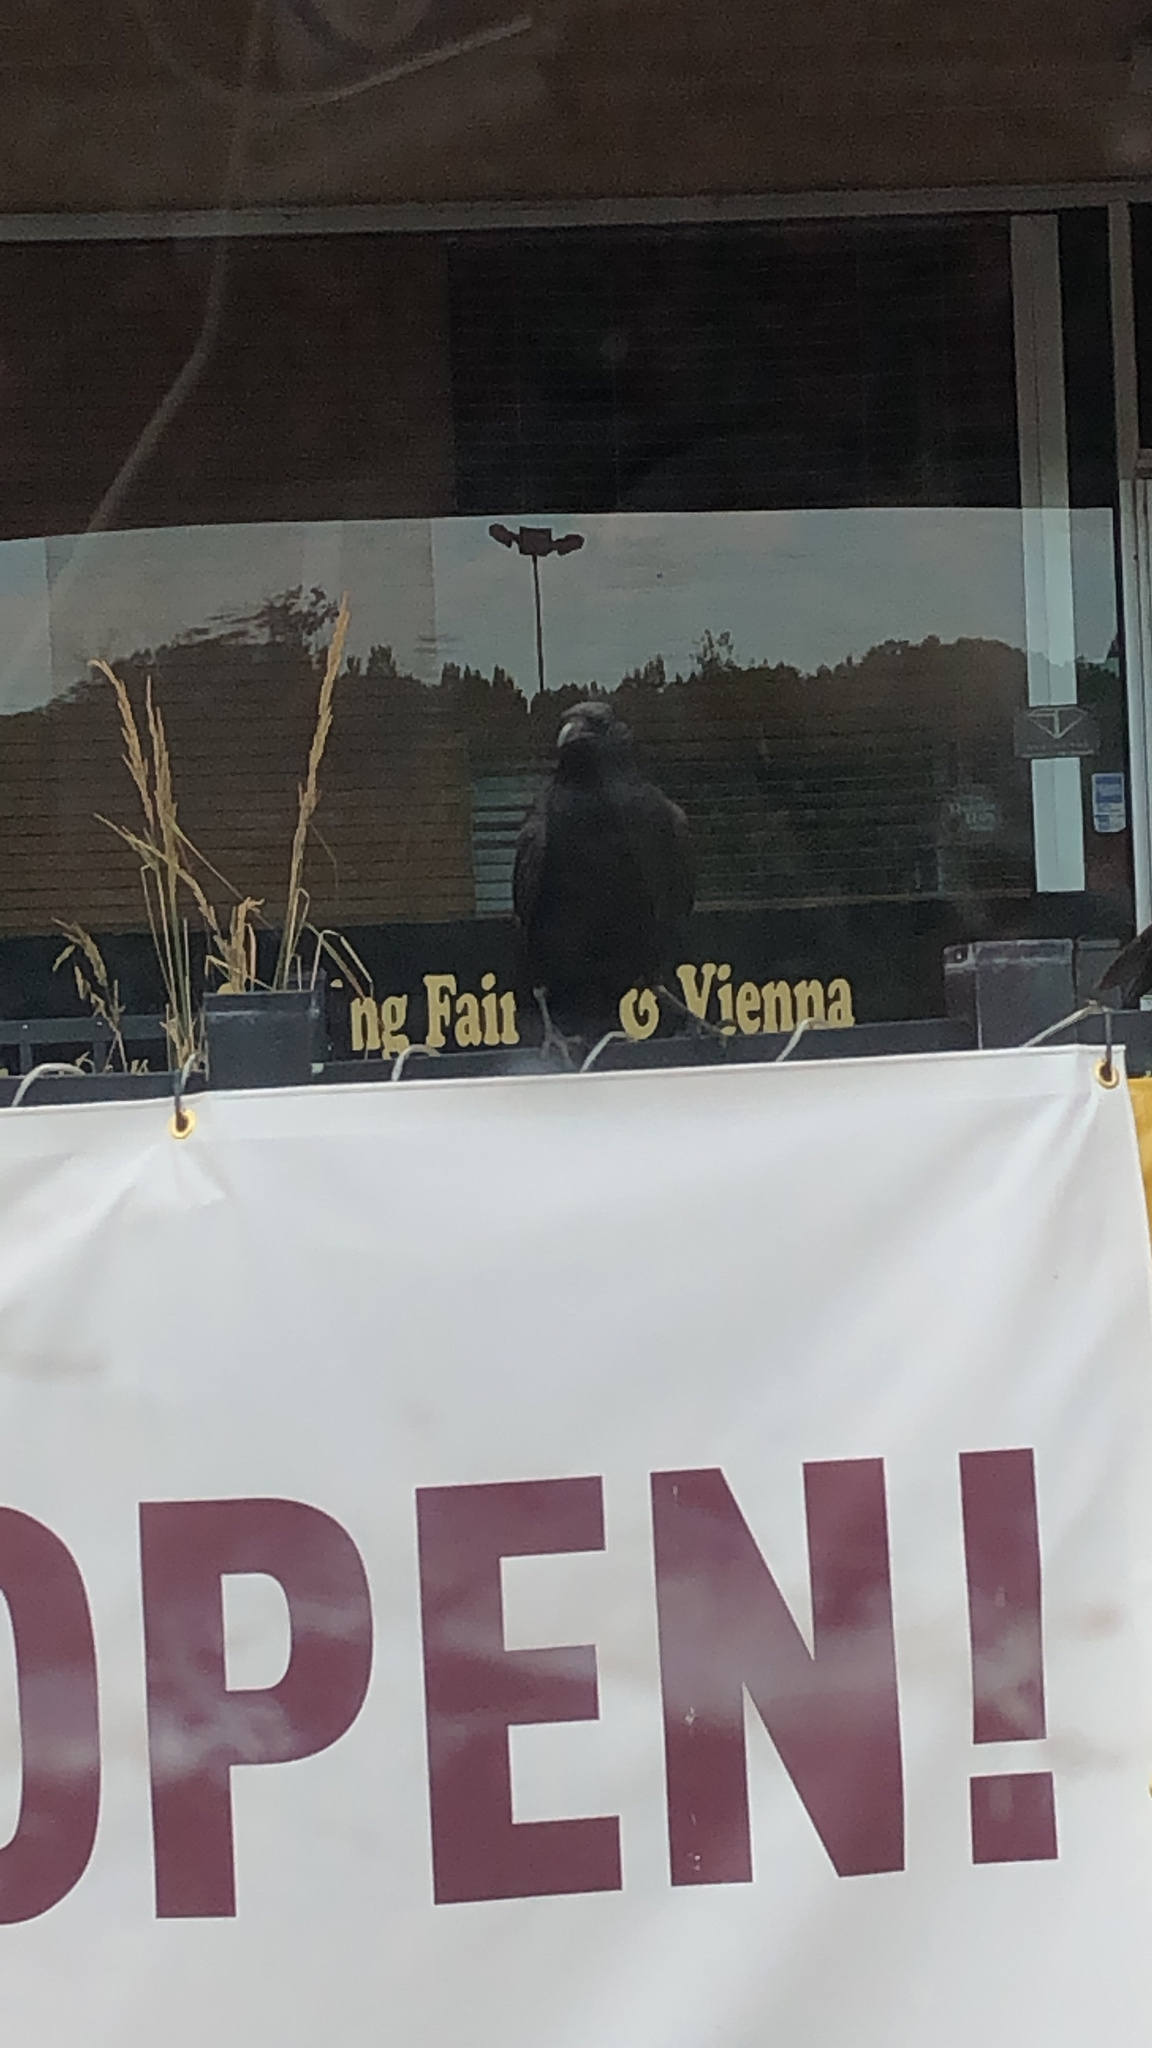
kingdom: Animalia
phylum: Chordata
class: Aves
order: Passeriformes
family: Corvidae
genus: Corvus
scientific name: Corvus
